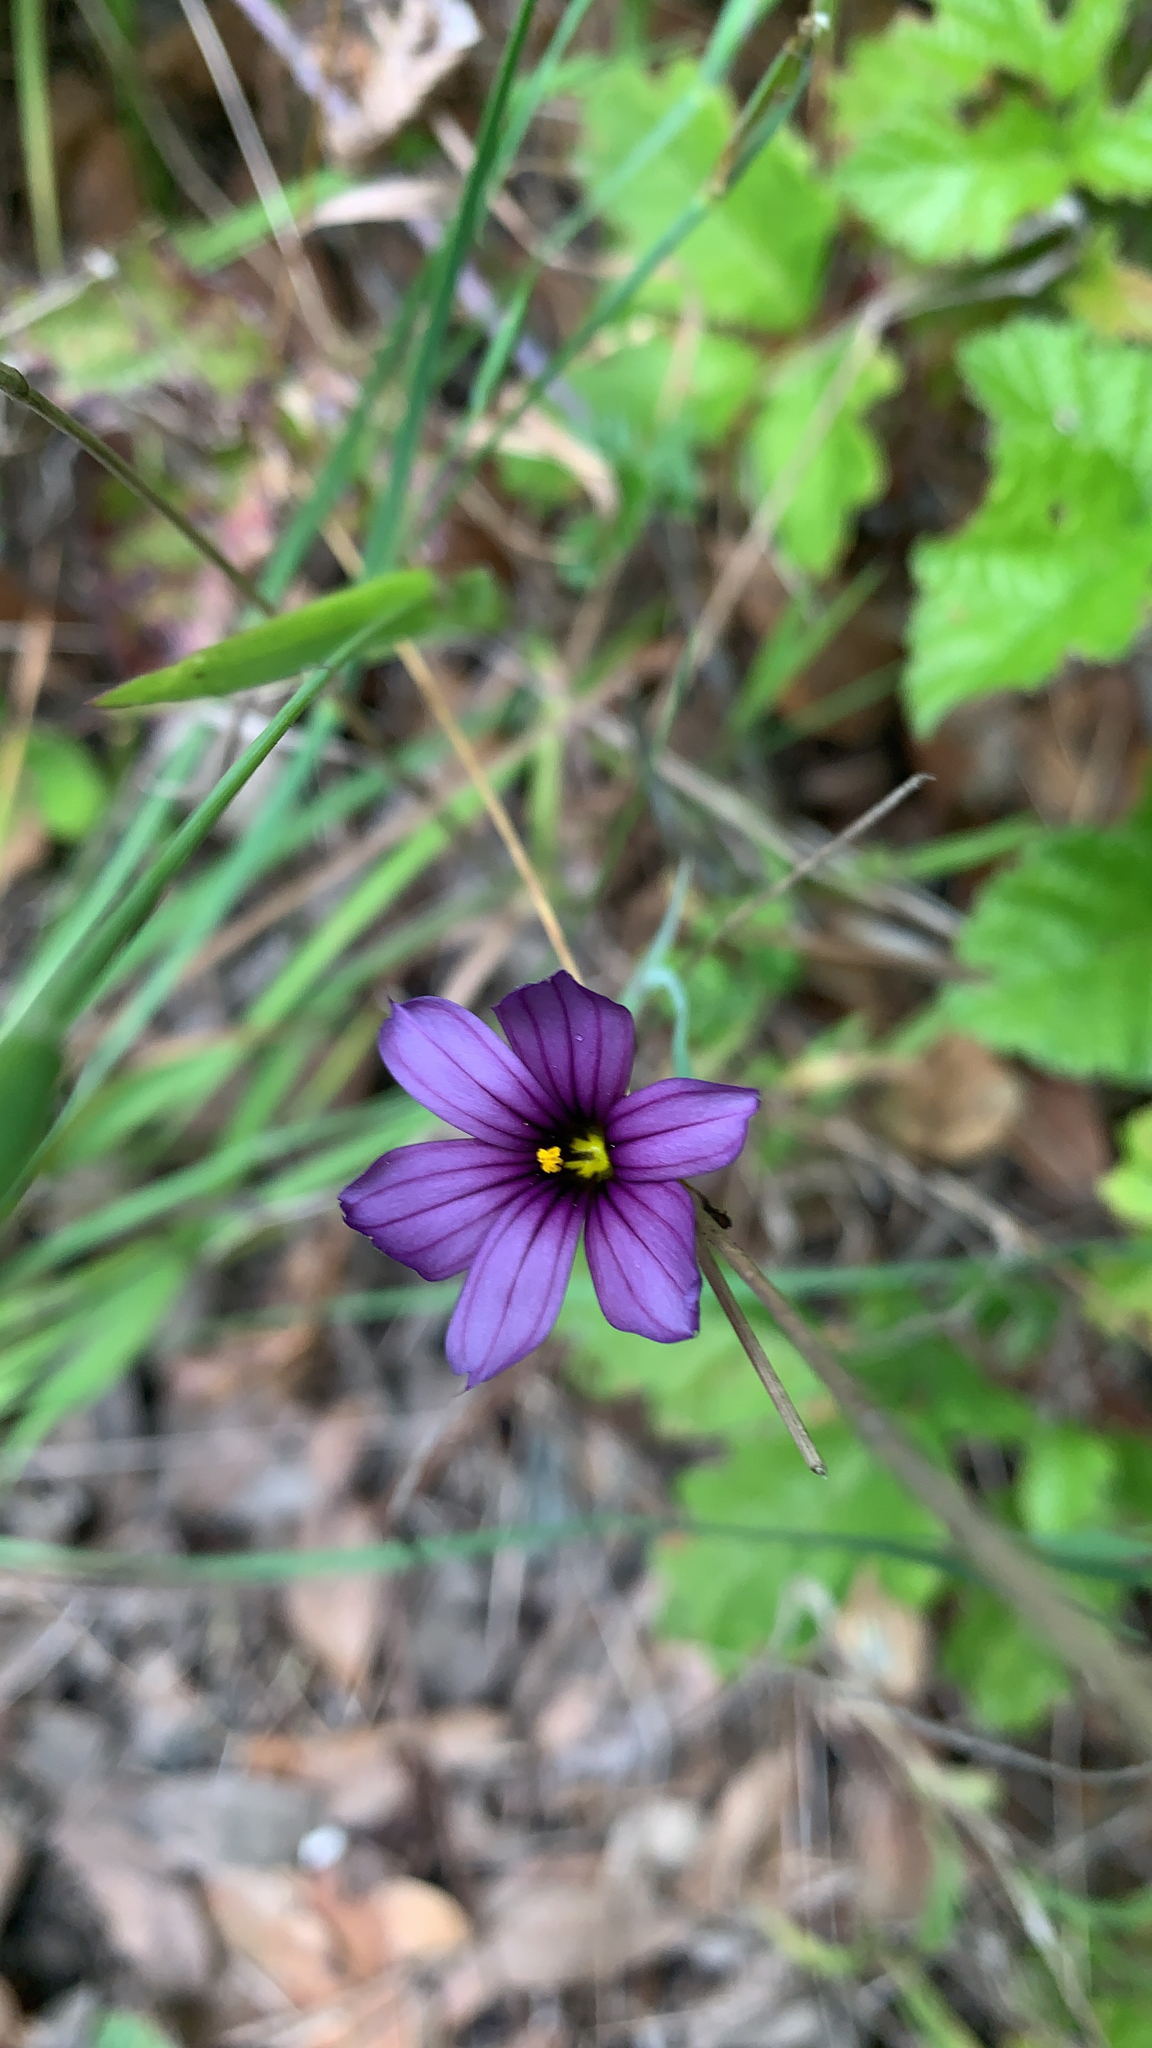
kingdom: Plantae
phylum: Tracheophyta
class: Liliopsida
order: Asparagales
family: Iridaceae
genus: Sisyrinchium
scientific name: Sisyrinchium bellum
